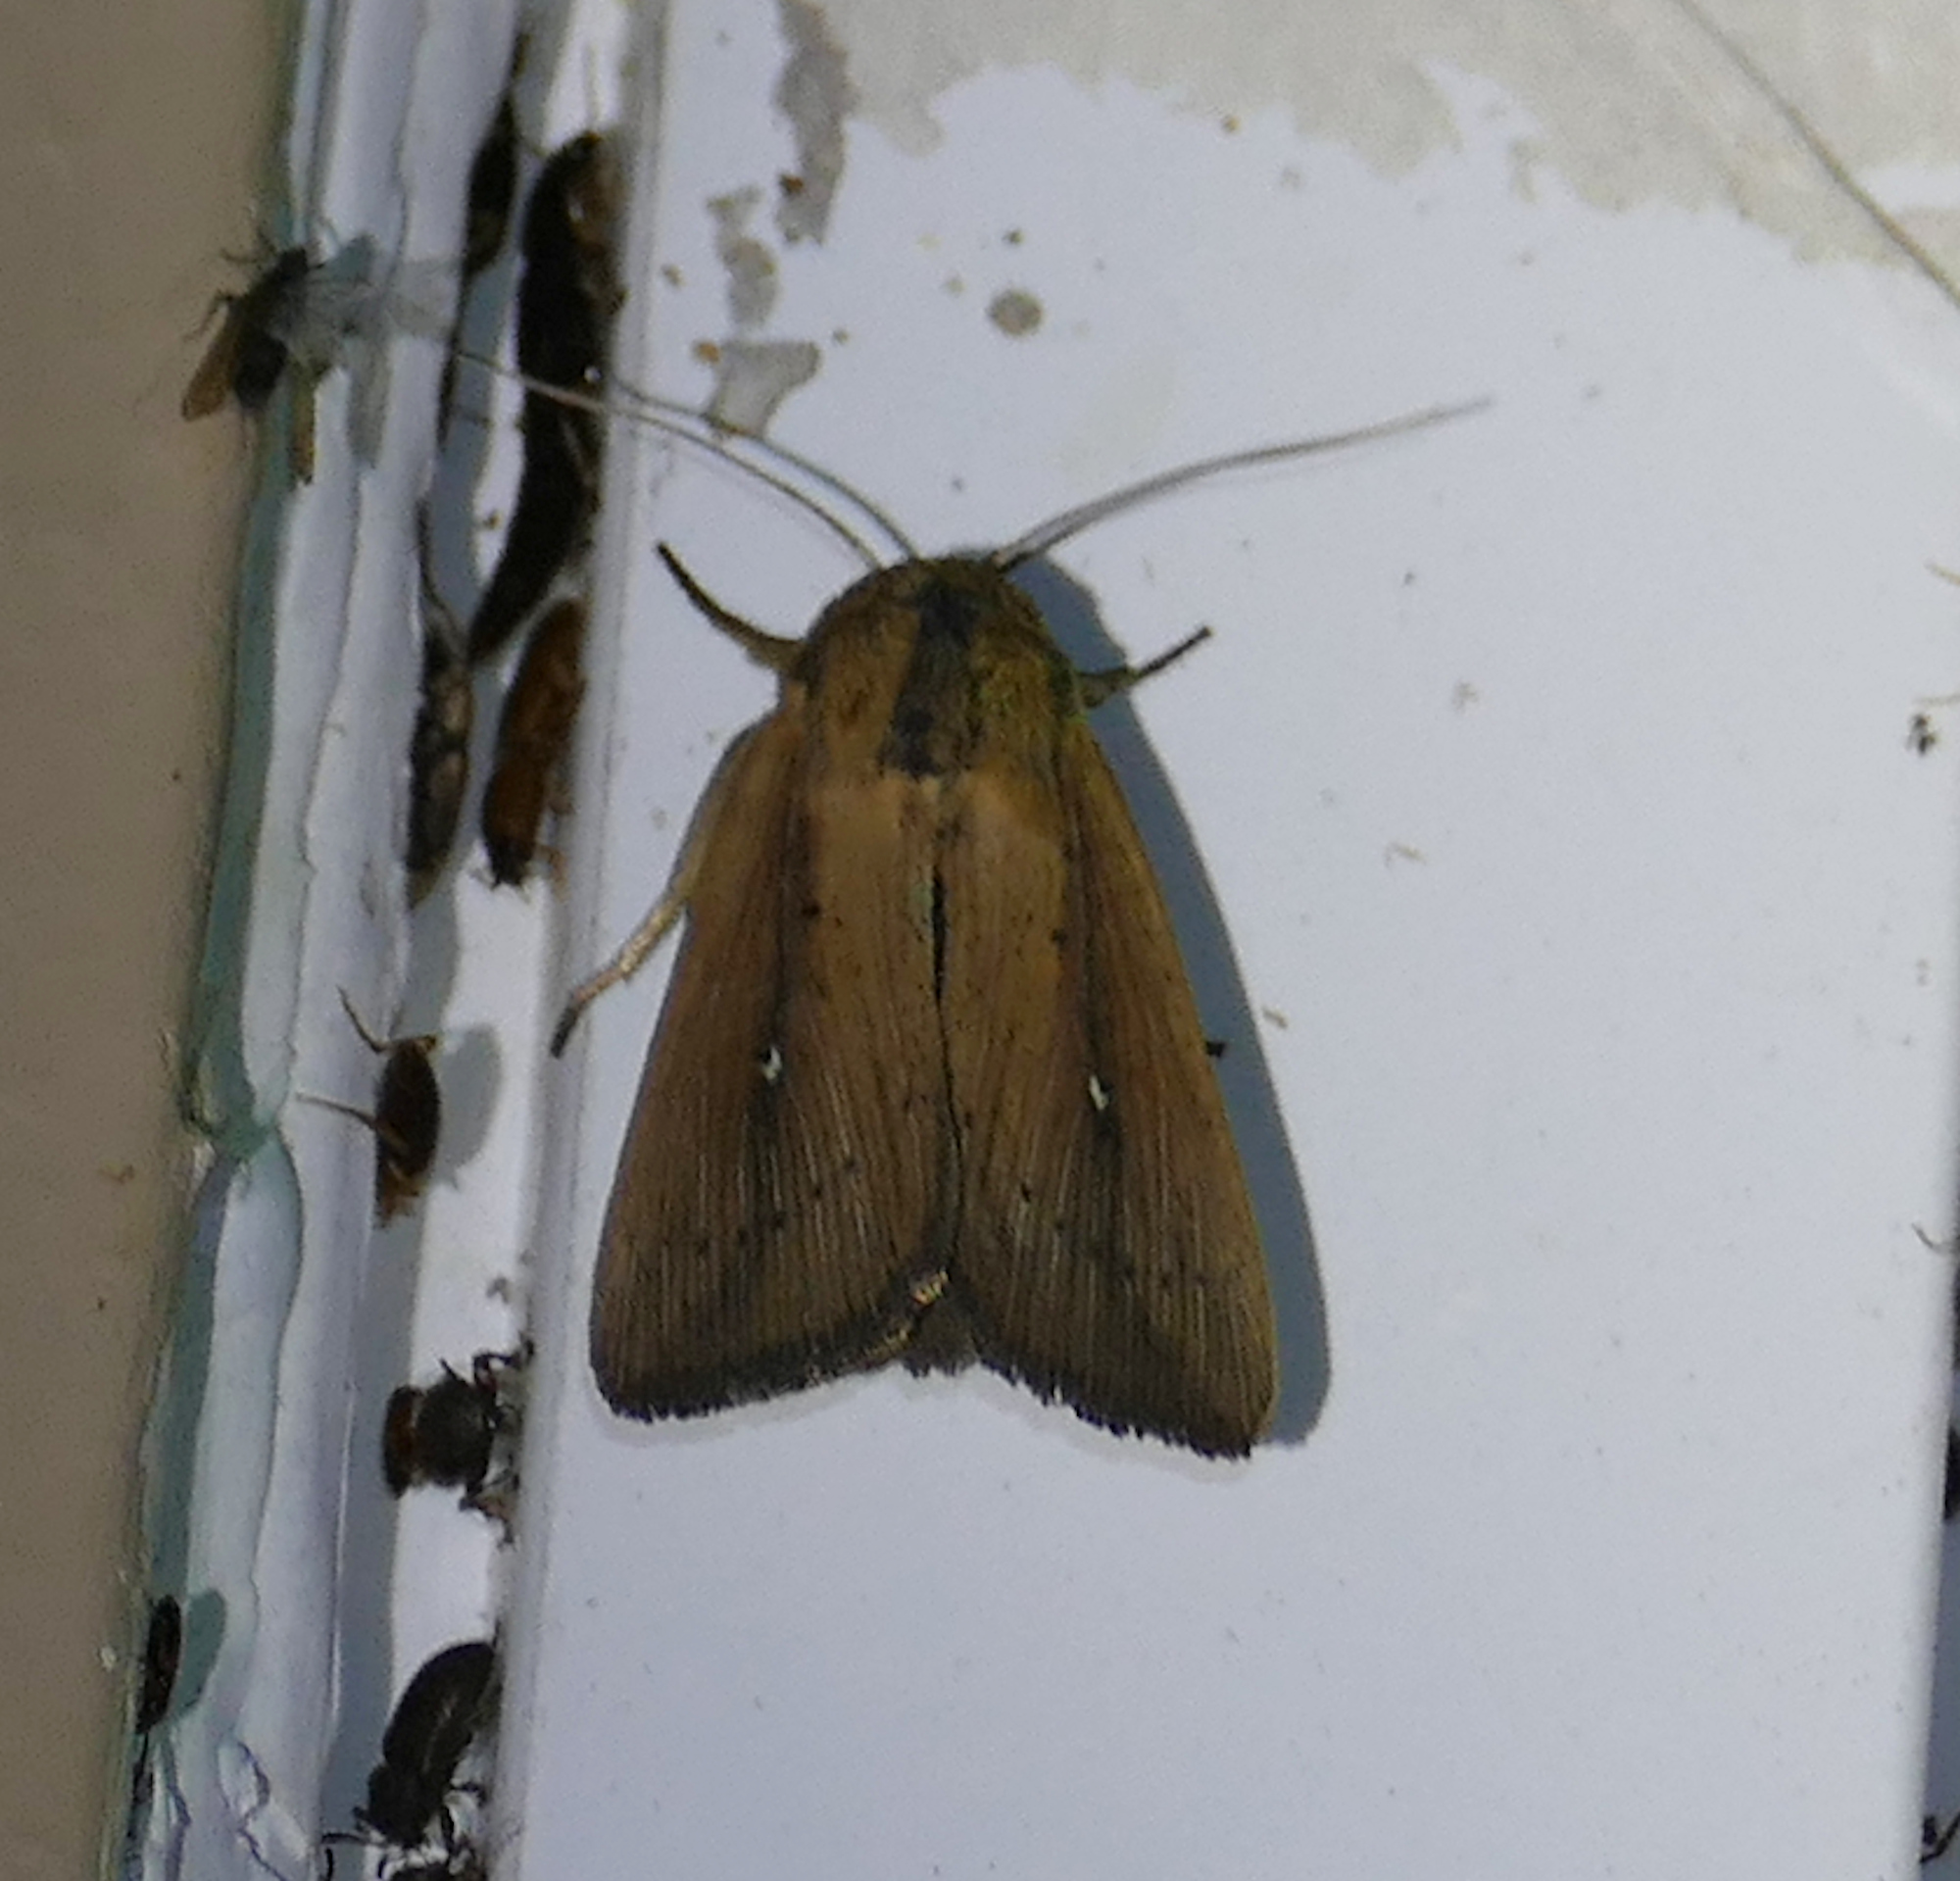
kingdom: Animalia
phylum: Arthropoda
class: Insecta
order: Lepidoptera
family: Noctuidae
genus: Leucania
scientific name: Leucania incognita
